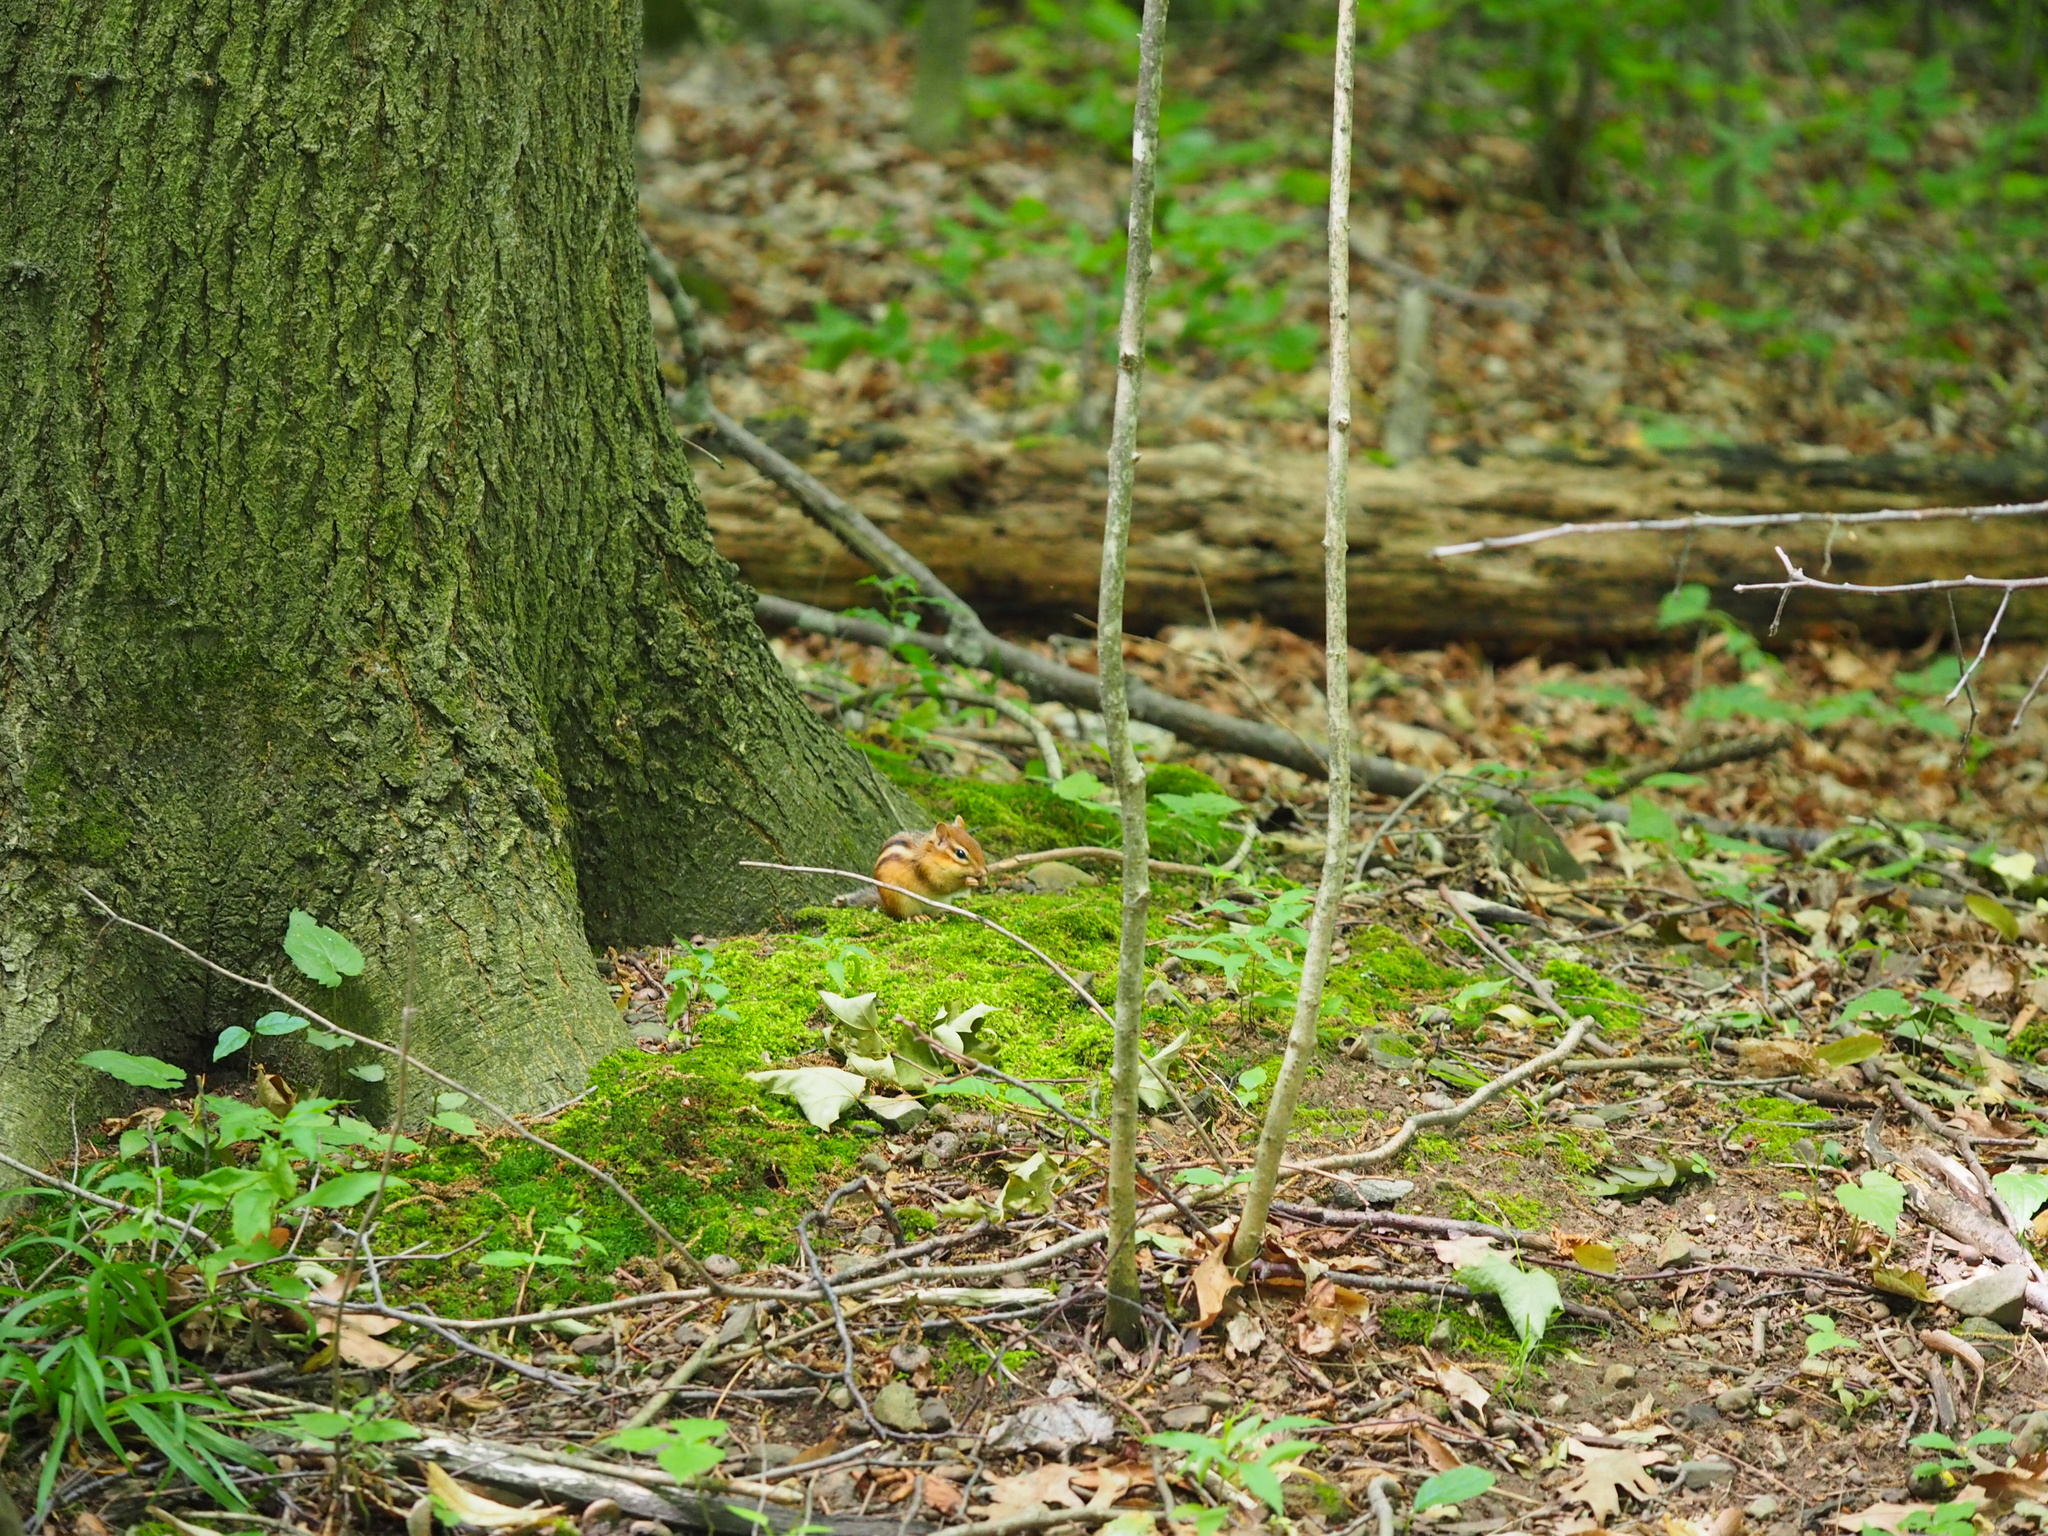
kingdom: Animalia
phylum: Chordata
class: Mammalia
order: Rodentia
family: Sciuridae
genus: Tamias
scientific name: Tamias striatus
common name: Eastern chipmunk
